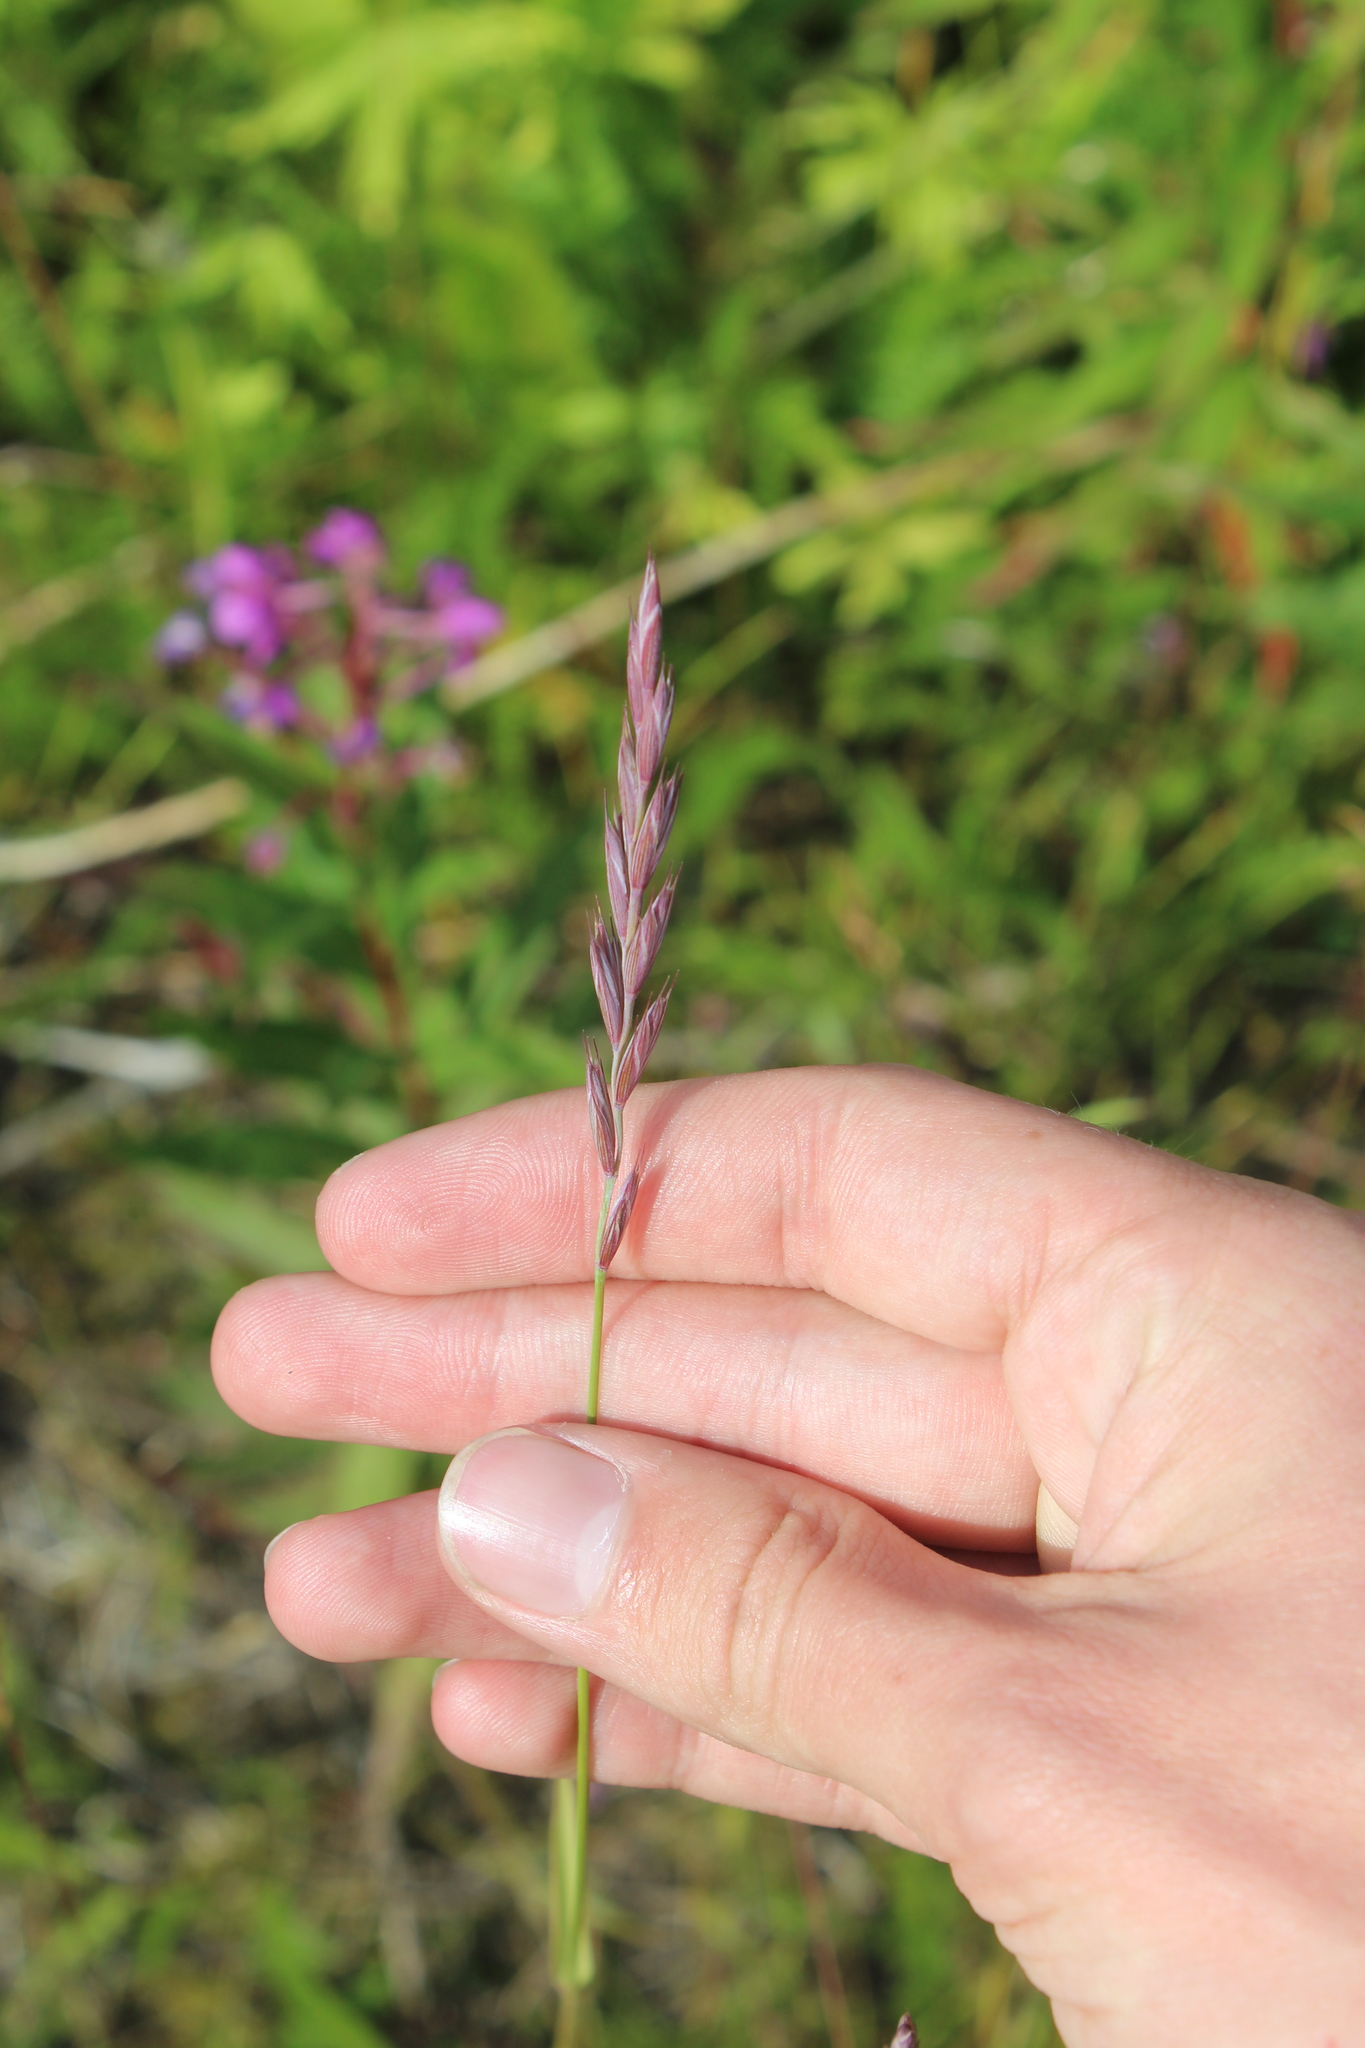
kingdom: Plantae
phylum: Tracheophyta
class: Liliopsida
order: Poales
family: Poaceae
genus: Elymus
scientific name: Elymus repens
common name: Quackgrass
